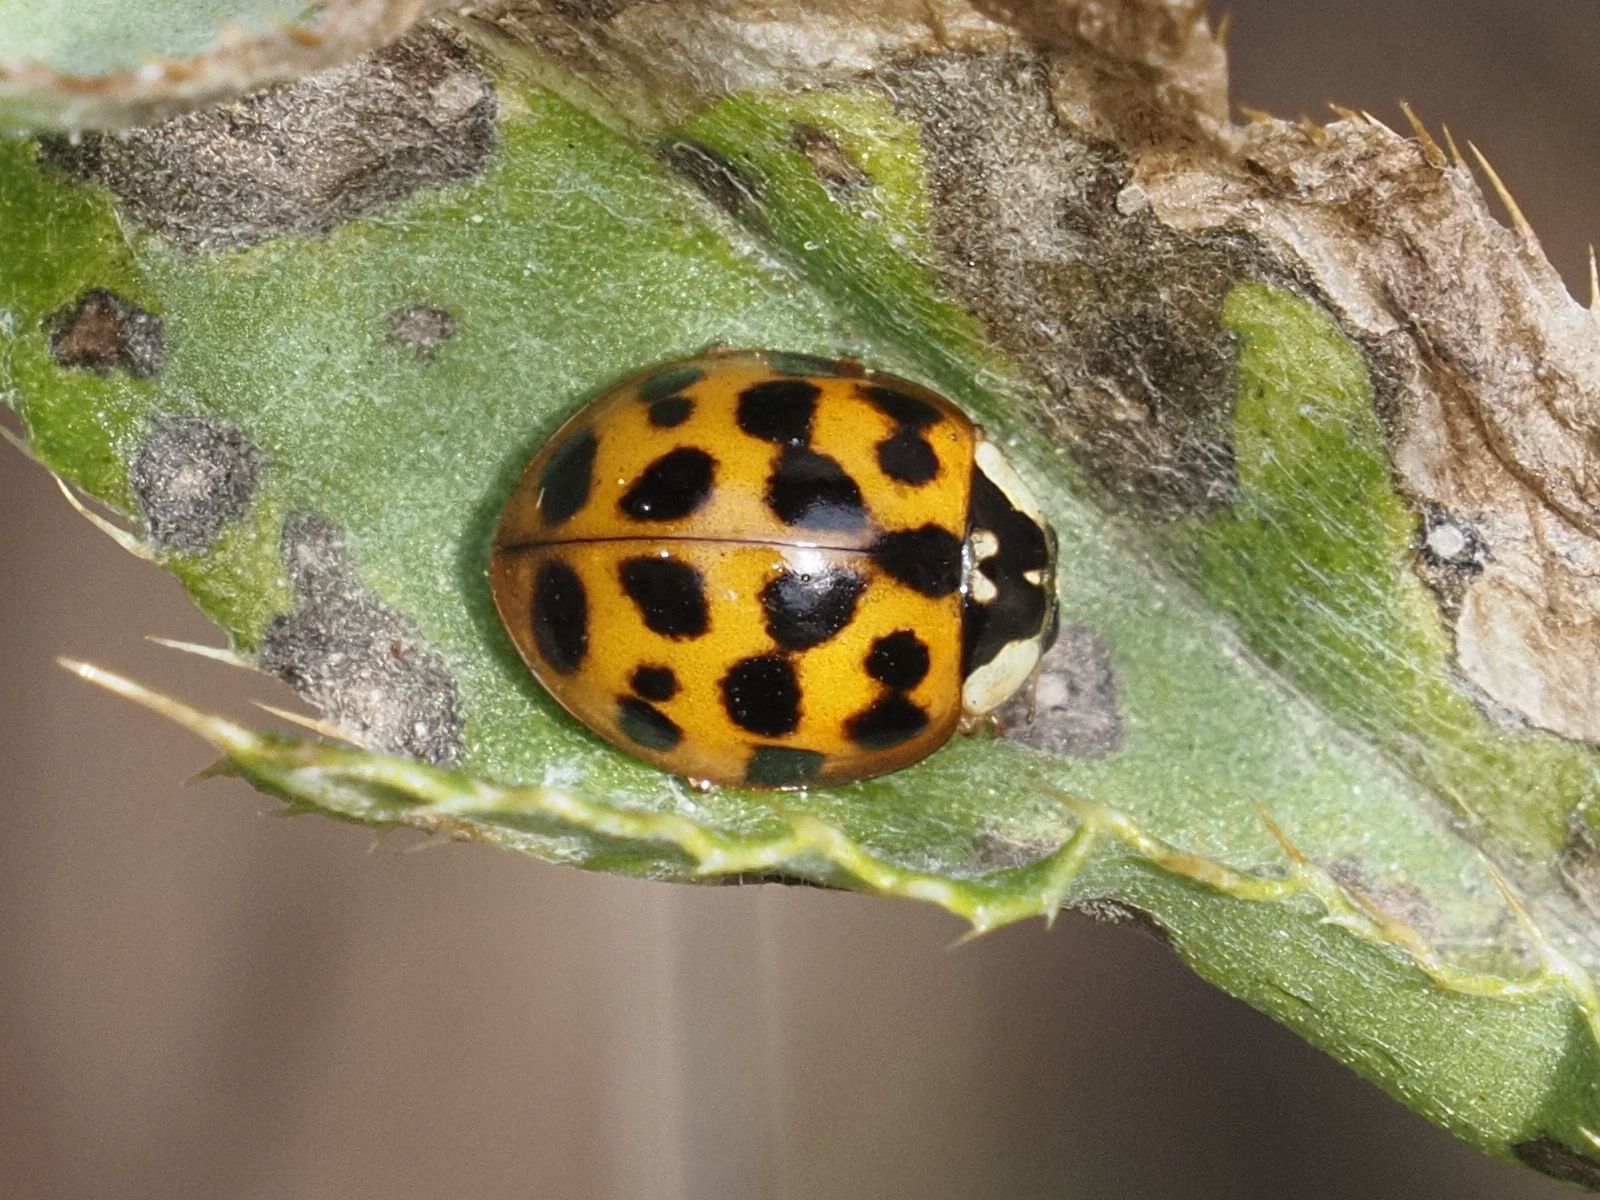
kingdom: Animalia
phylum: Arthropoda
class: Insecta
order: Coleoptera
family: Coccinellidae
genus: Harmonia
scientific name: Harmonia axyridis
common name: Harlequin ladybird
